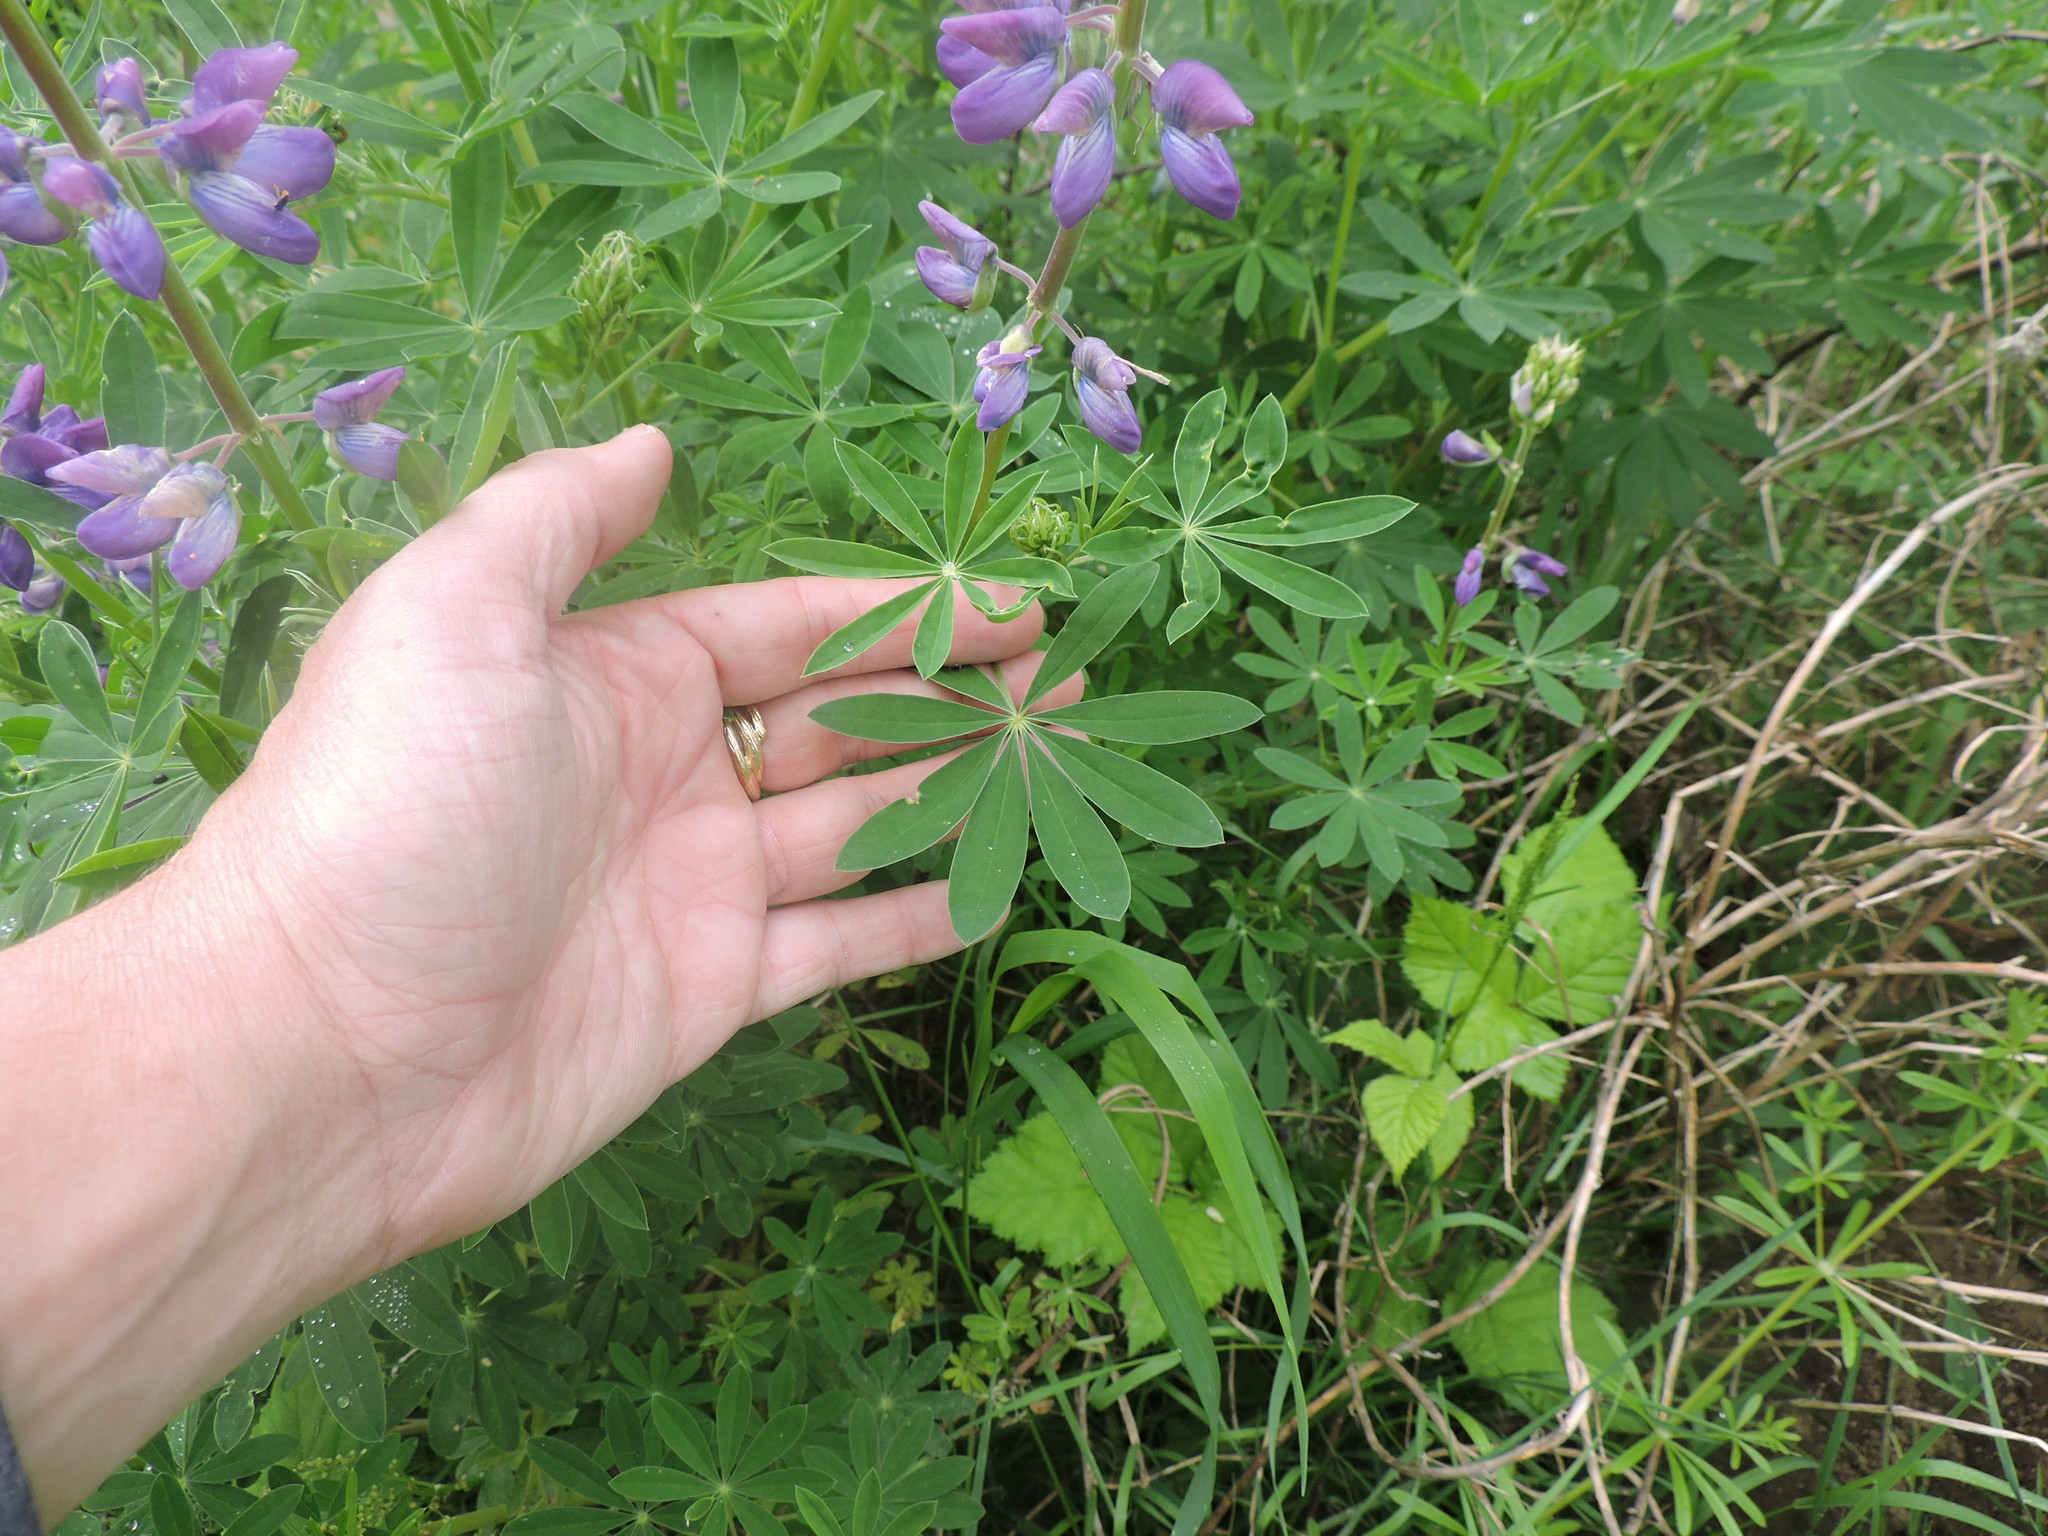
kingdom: Plantae
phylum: Tracheophyta
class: Magnoliopsida
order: Fabales
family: Fabaceae
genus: Lupinus
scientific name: Lupinus rivularis
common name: Riverbank lupine
